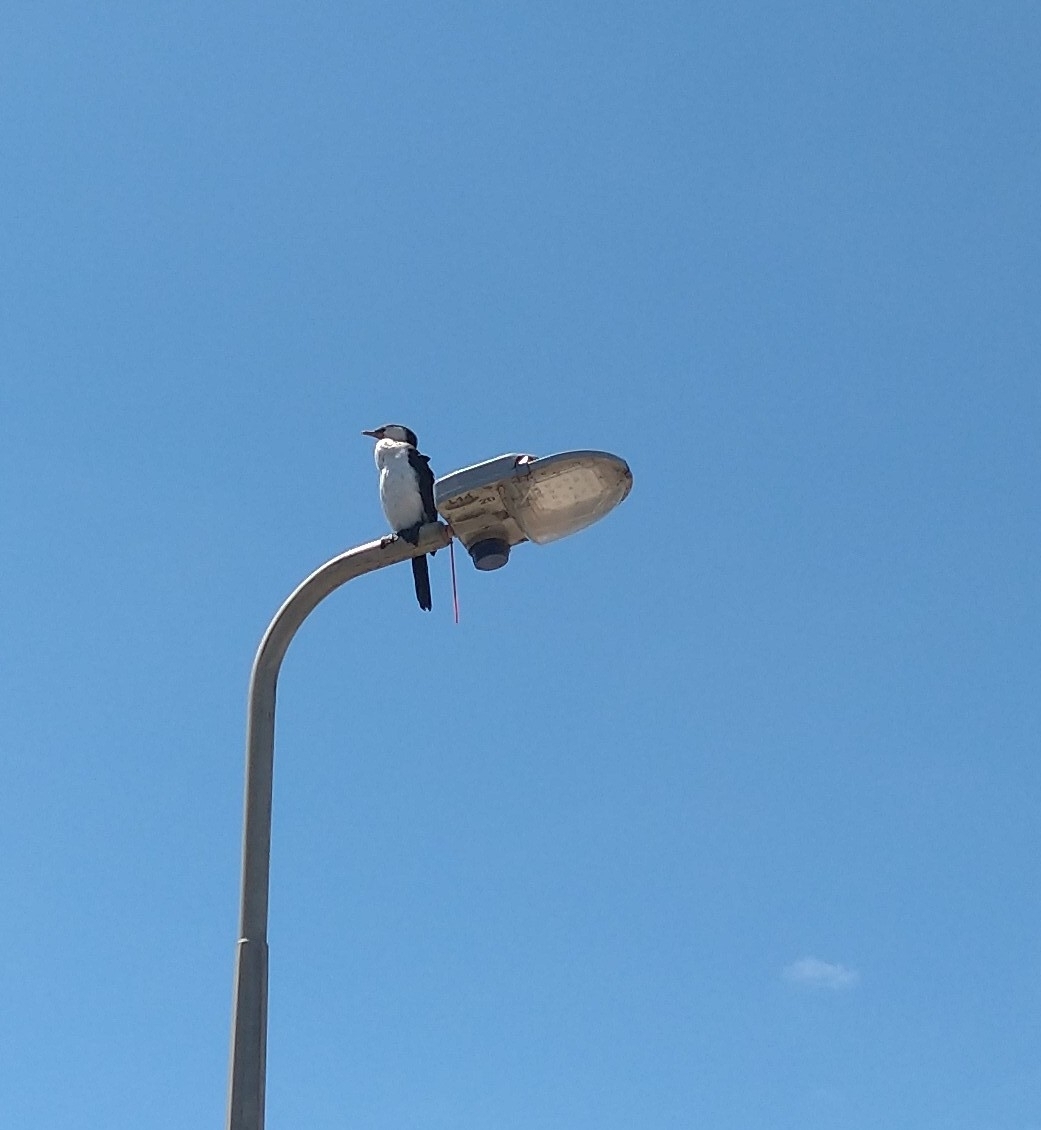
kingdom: Animalia
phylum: Chordata
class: Aves
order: Suliformes
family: Phalacrocoracidae
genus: Microcarbo
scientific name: Microcarbo melanoleucos
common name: Little pied cormorant
